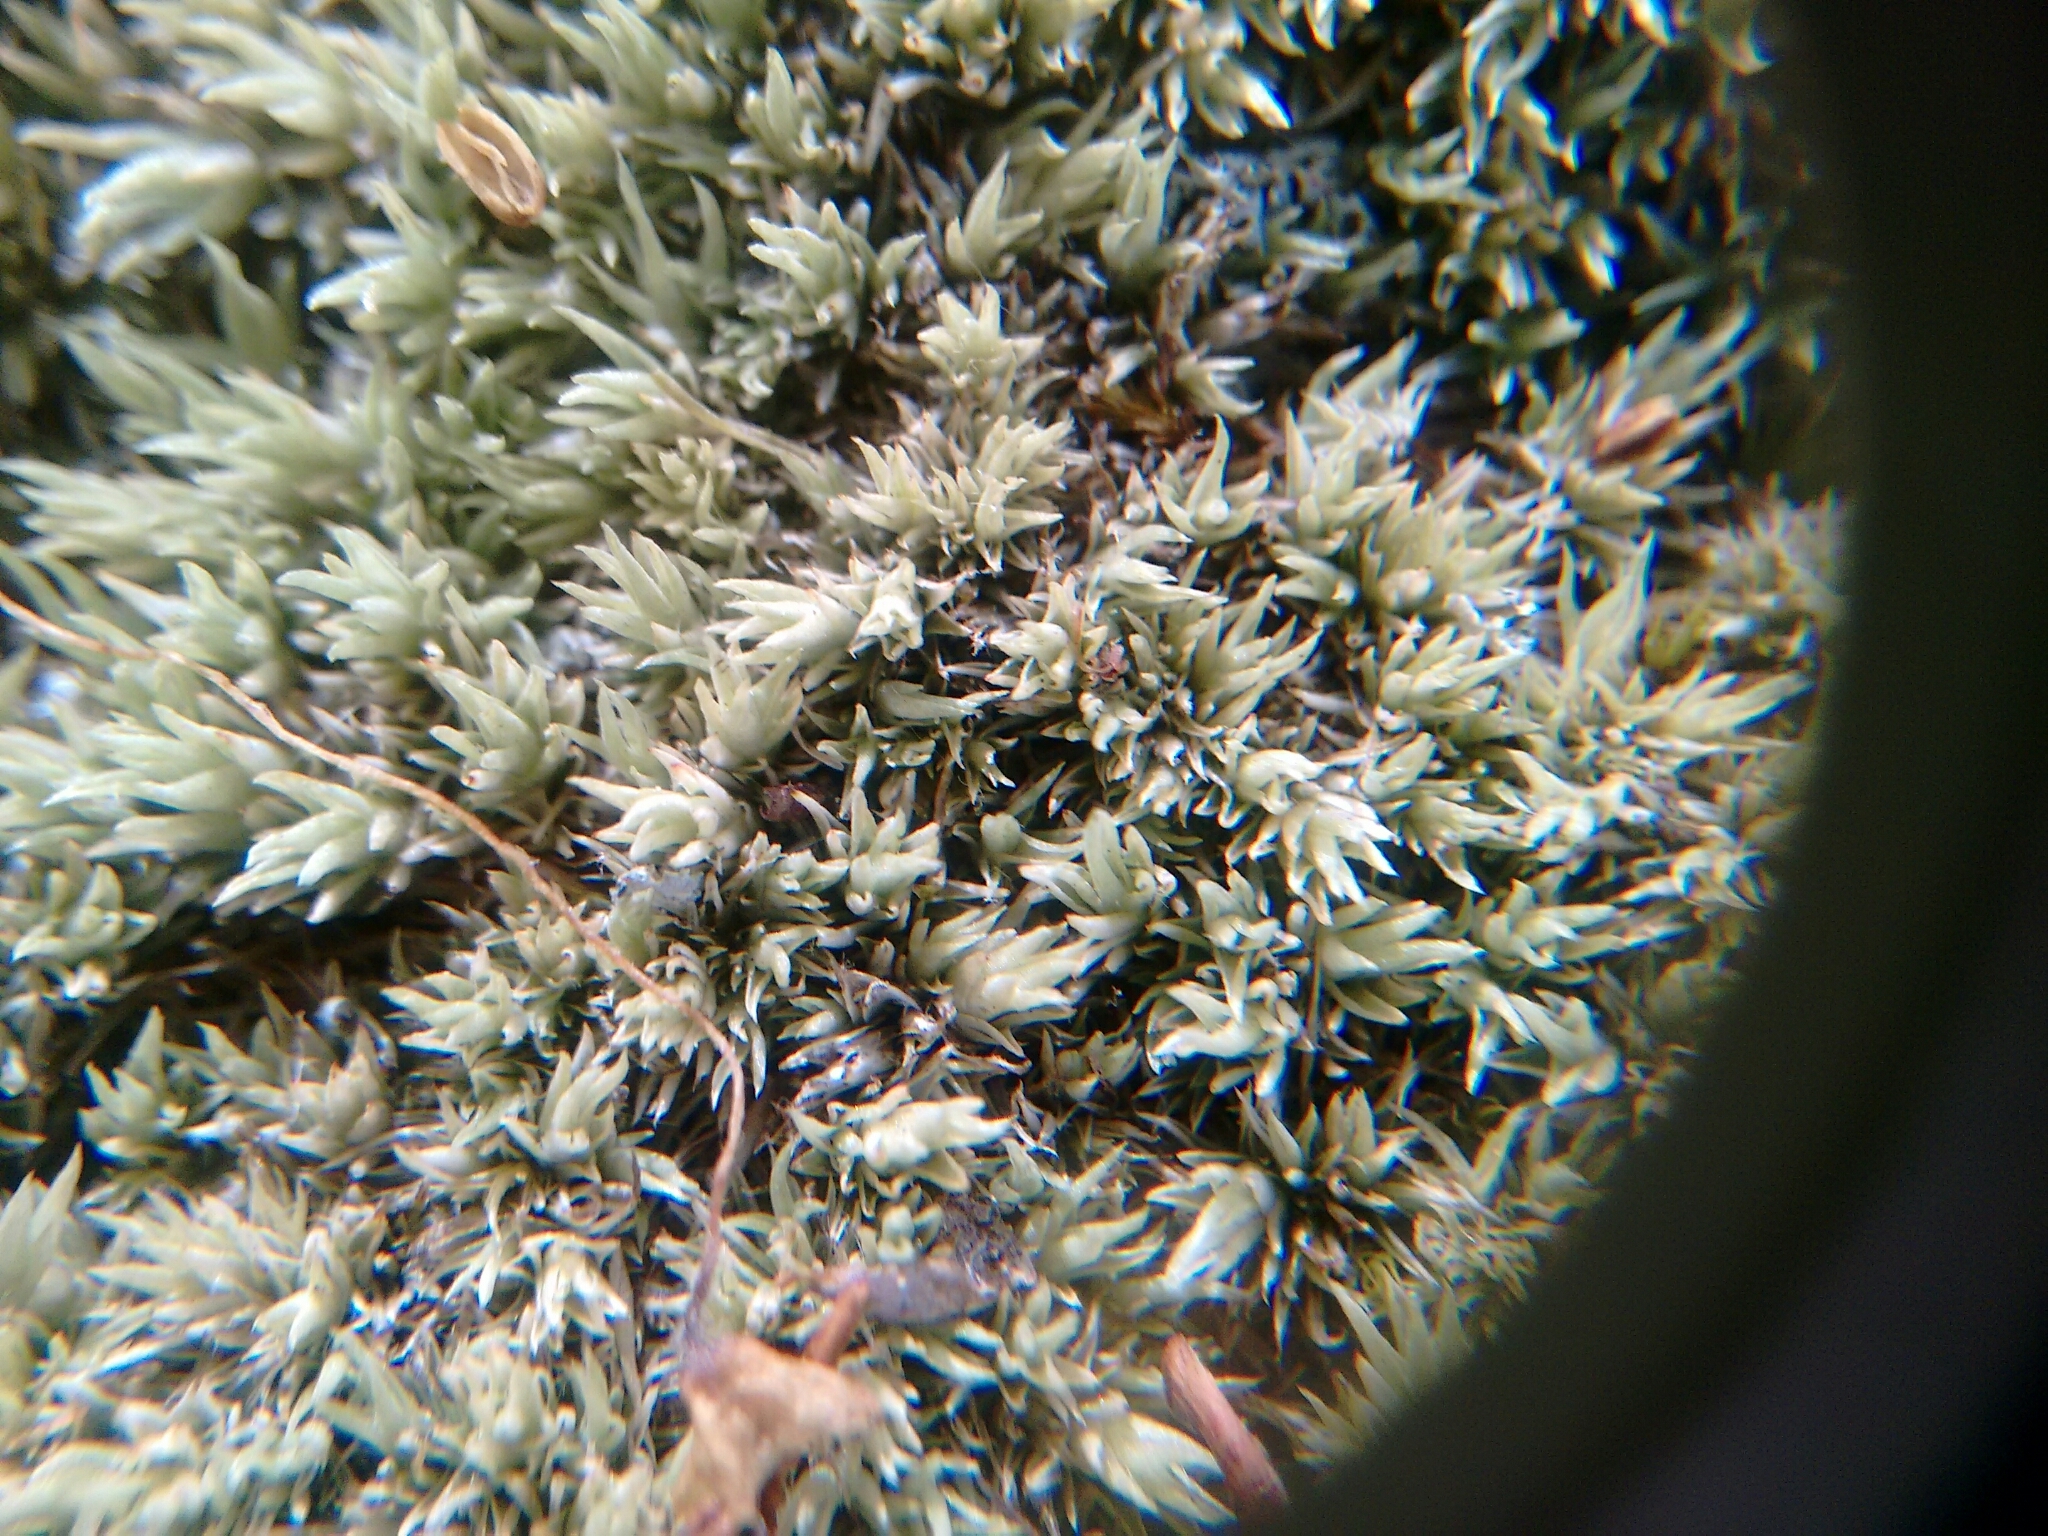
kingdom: Plantae
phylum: Bryophyta
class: Bryopsida
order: Dicranales
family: Leucobryaceae
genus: Leucobryum
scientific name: Leucobryum albidum
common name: White moss
